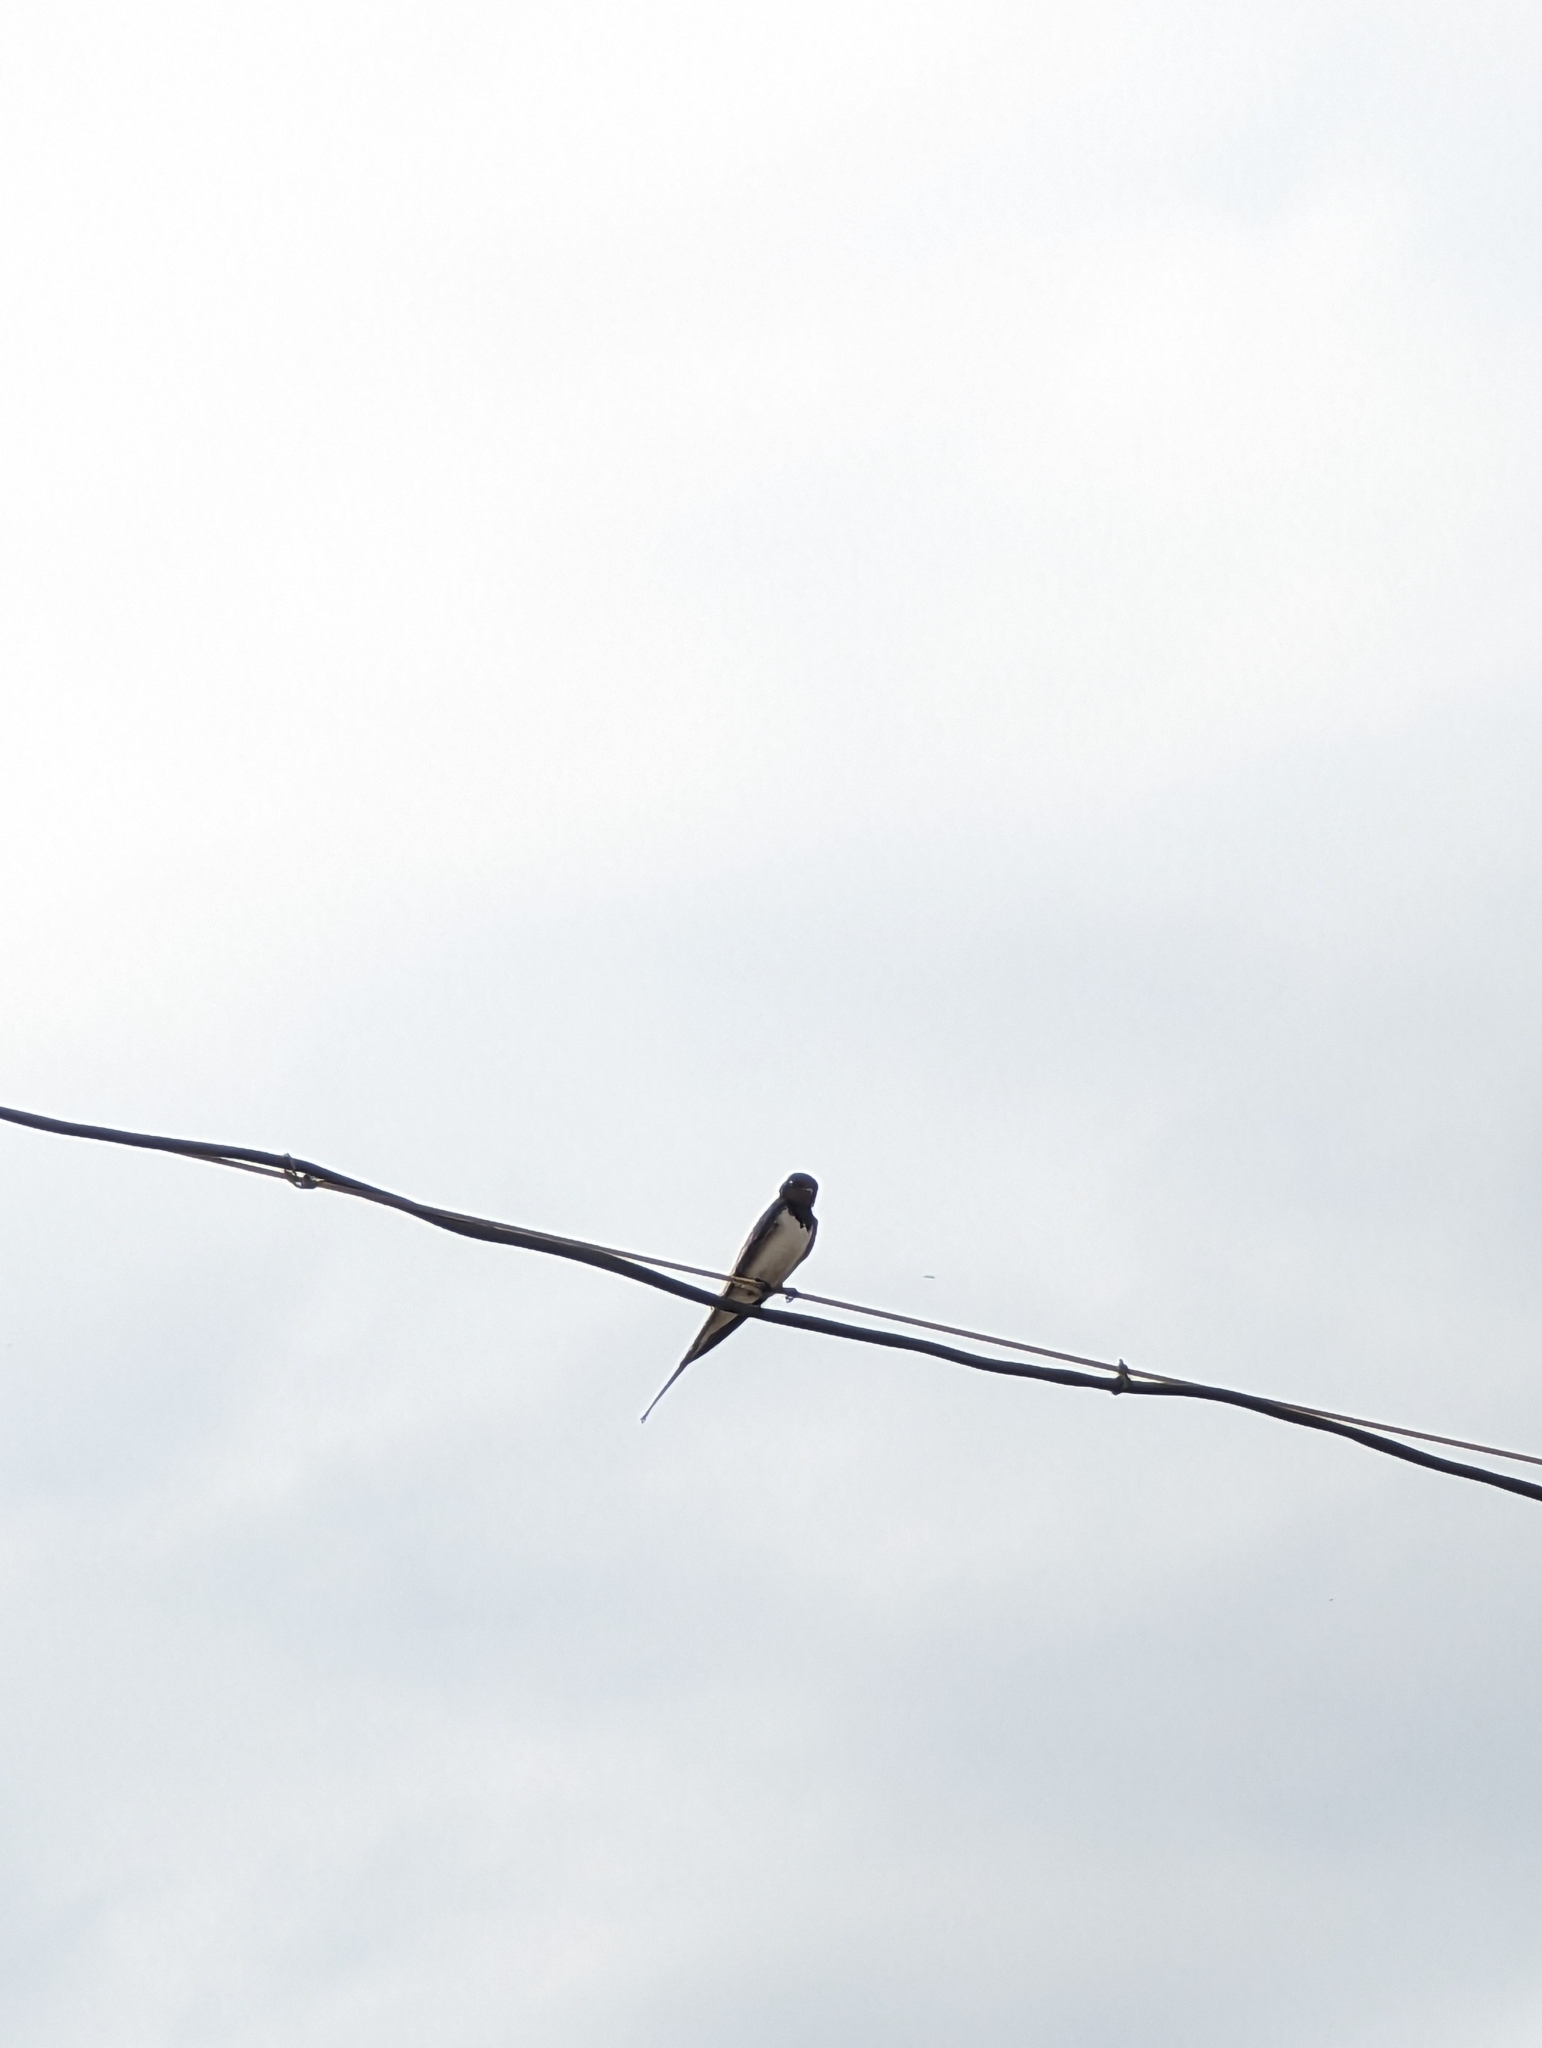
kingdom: Animalia
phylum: Chordata
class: Aves
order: Passeriformes
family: Hirundinidae
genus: Hirundo
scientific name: Hirundo rustica
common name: Barn swallow
